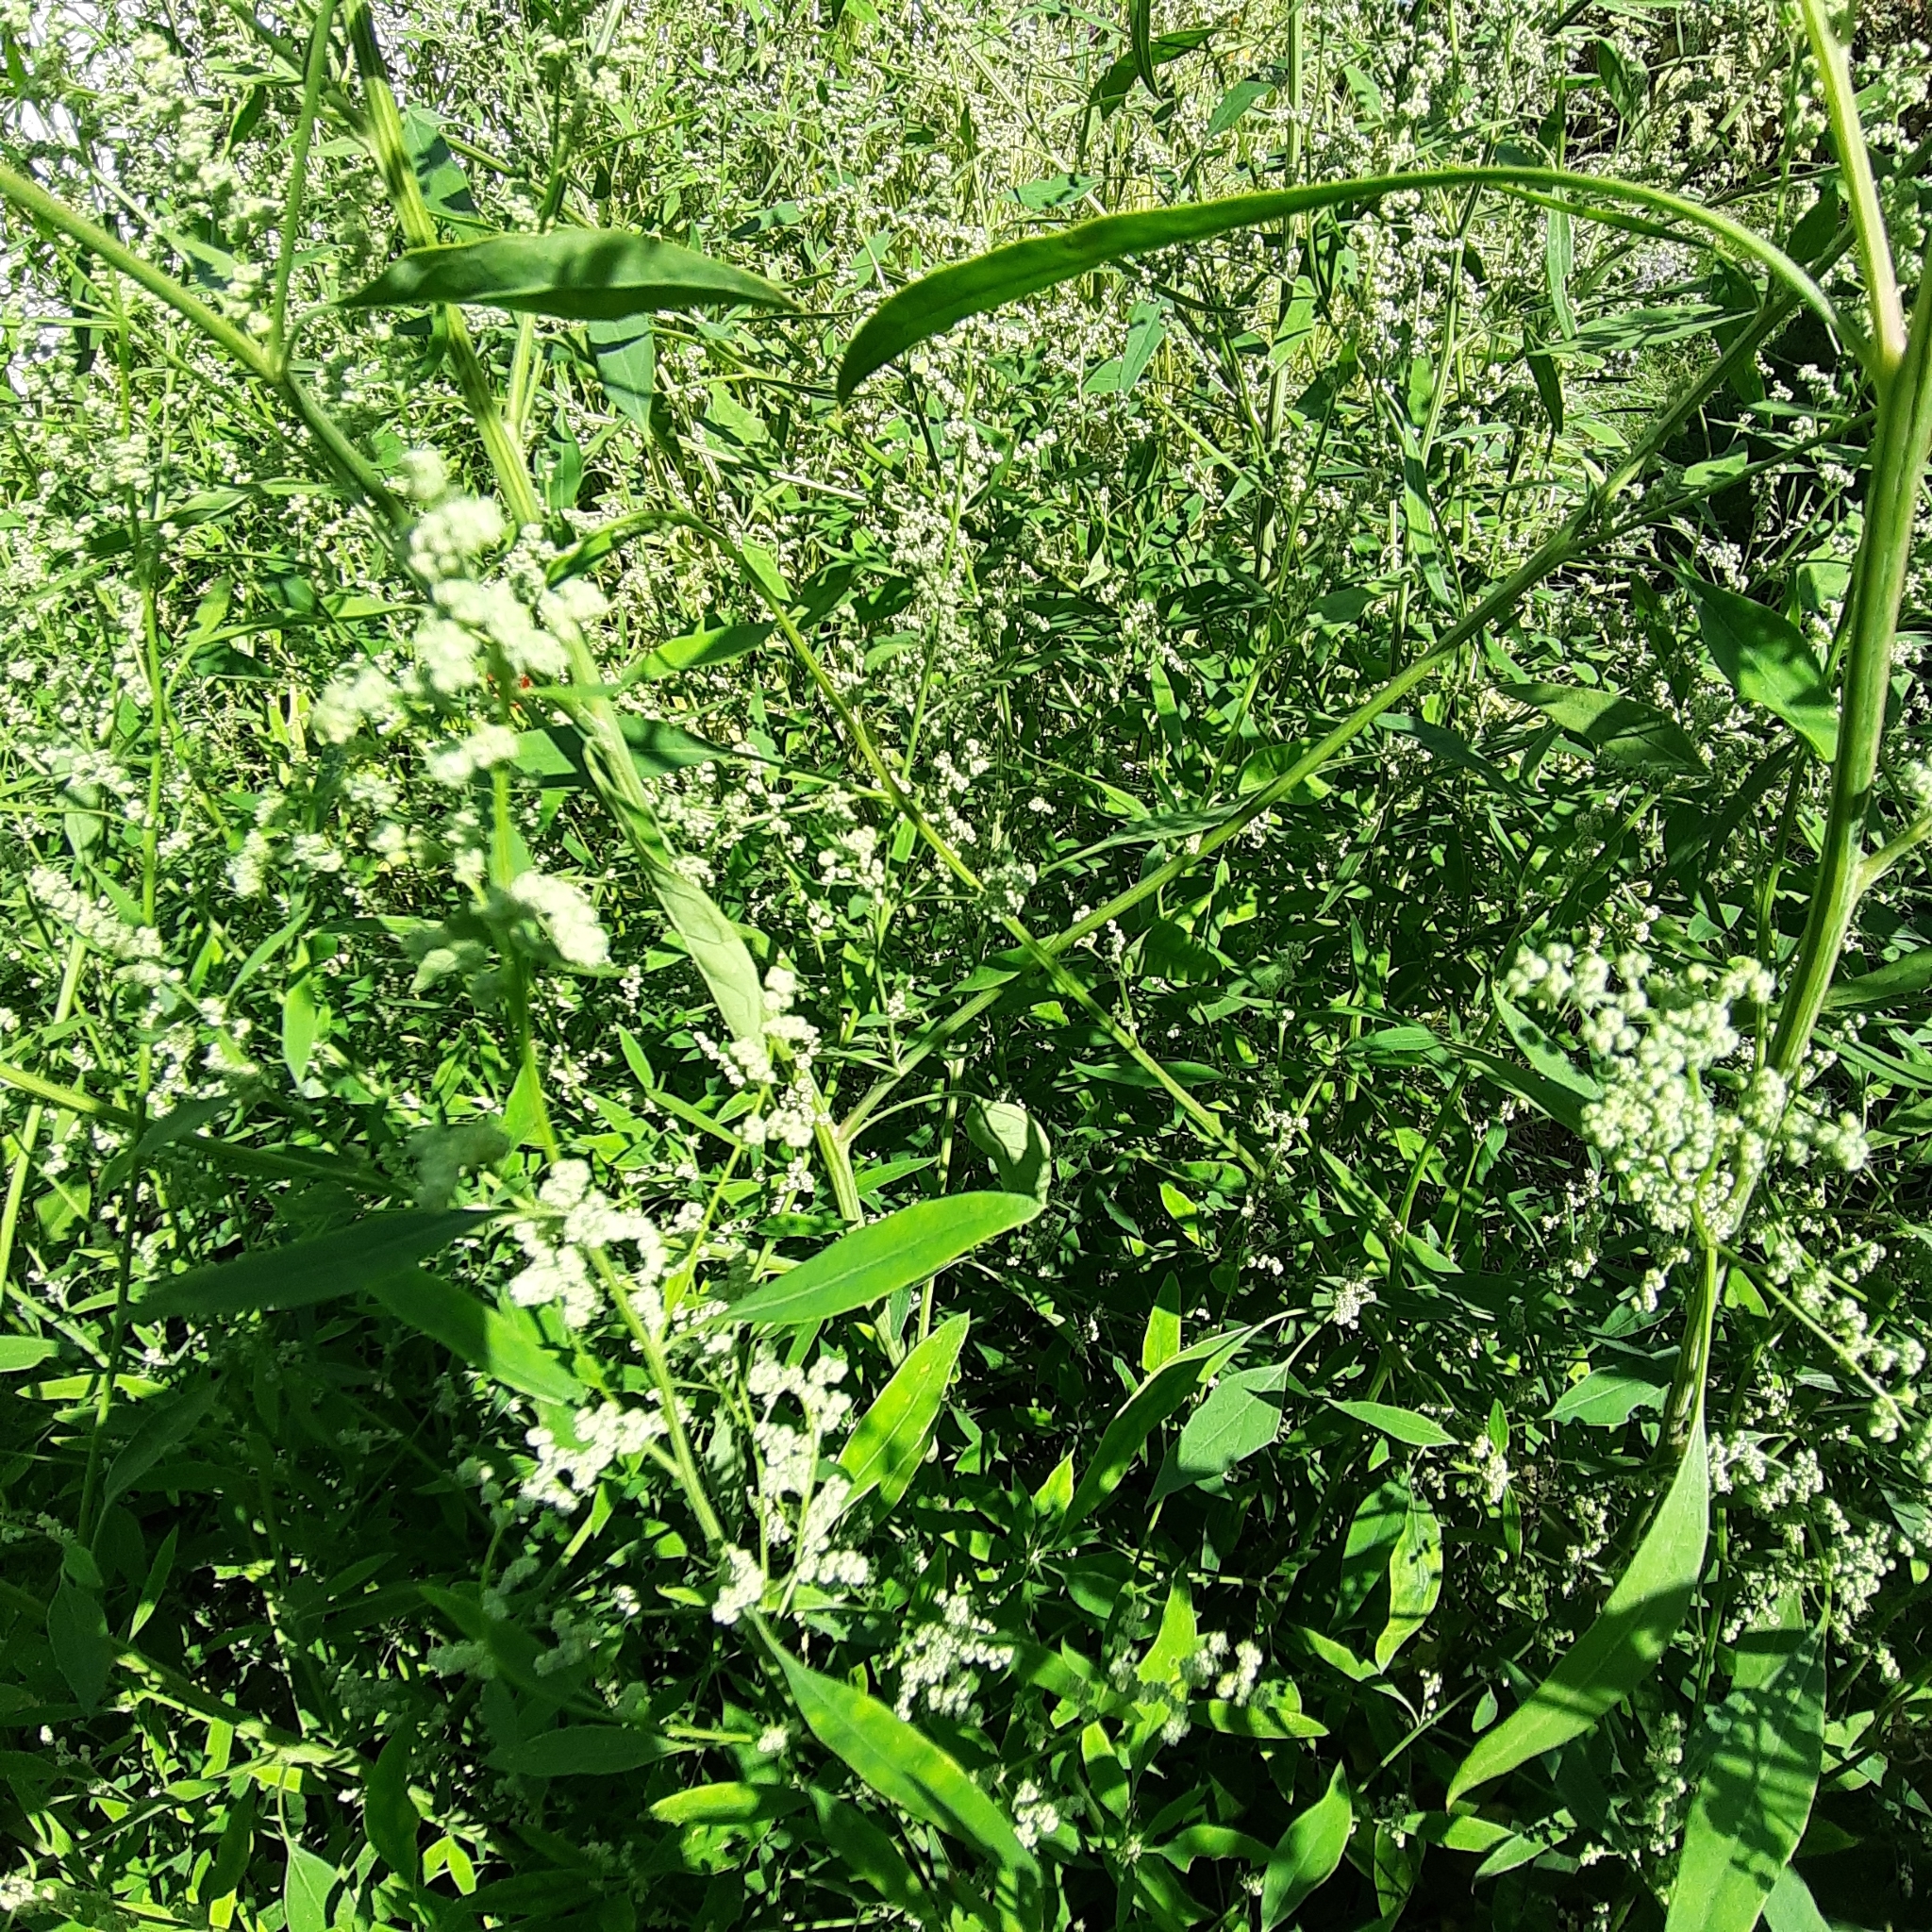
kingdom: Plantae
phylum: Tracheophyta
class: Magnoliopsida
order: Caryophyllales
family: Amaranthaceae
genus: Chenopodium
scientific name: Chenopodium album
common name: Fat-hen
